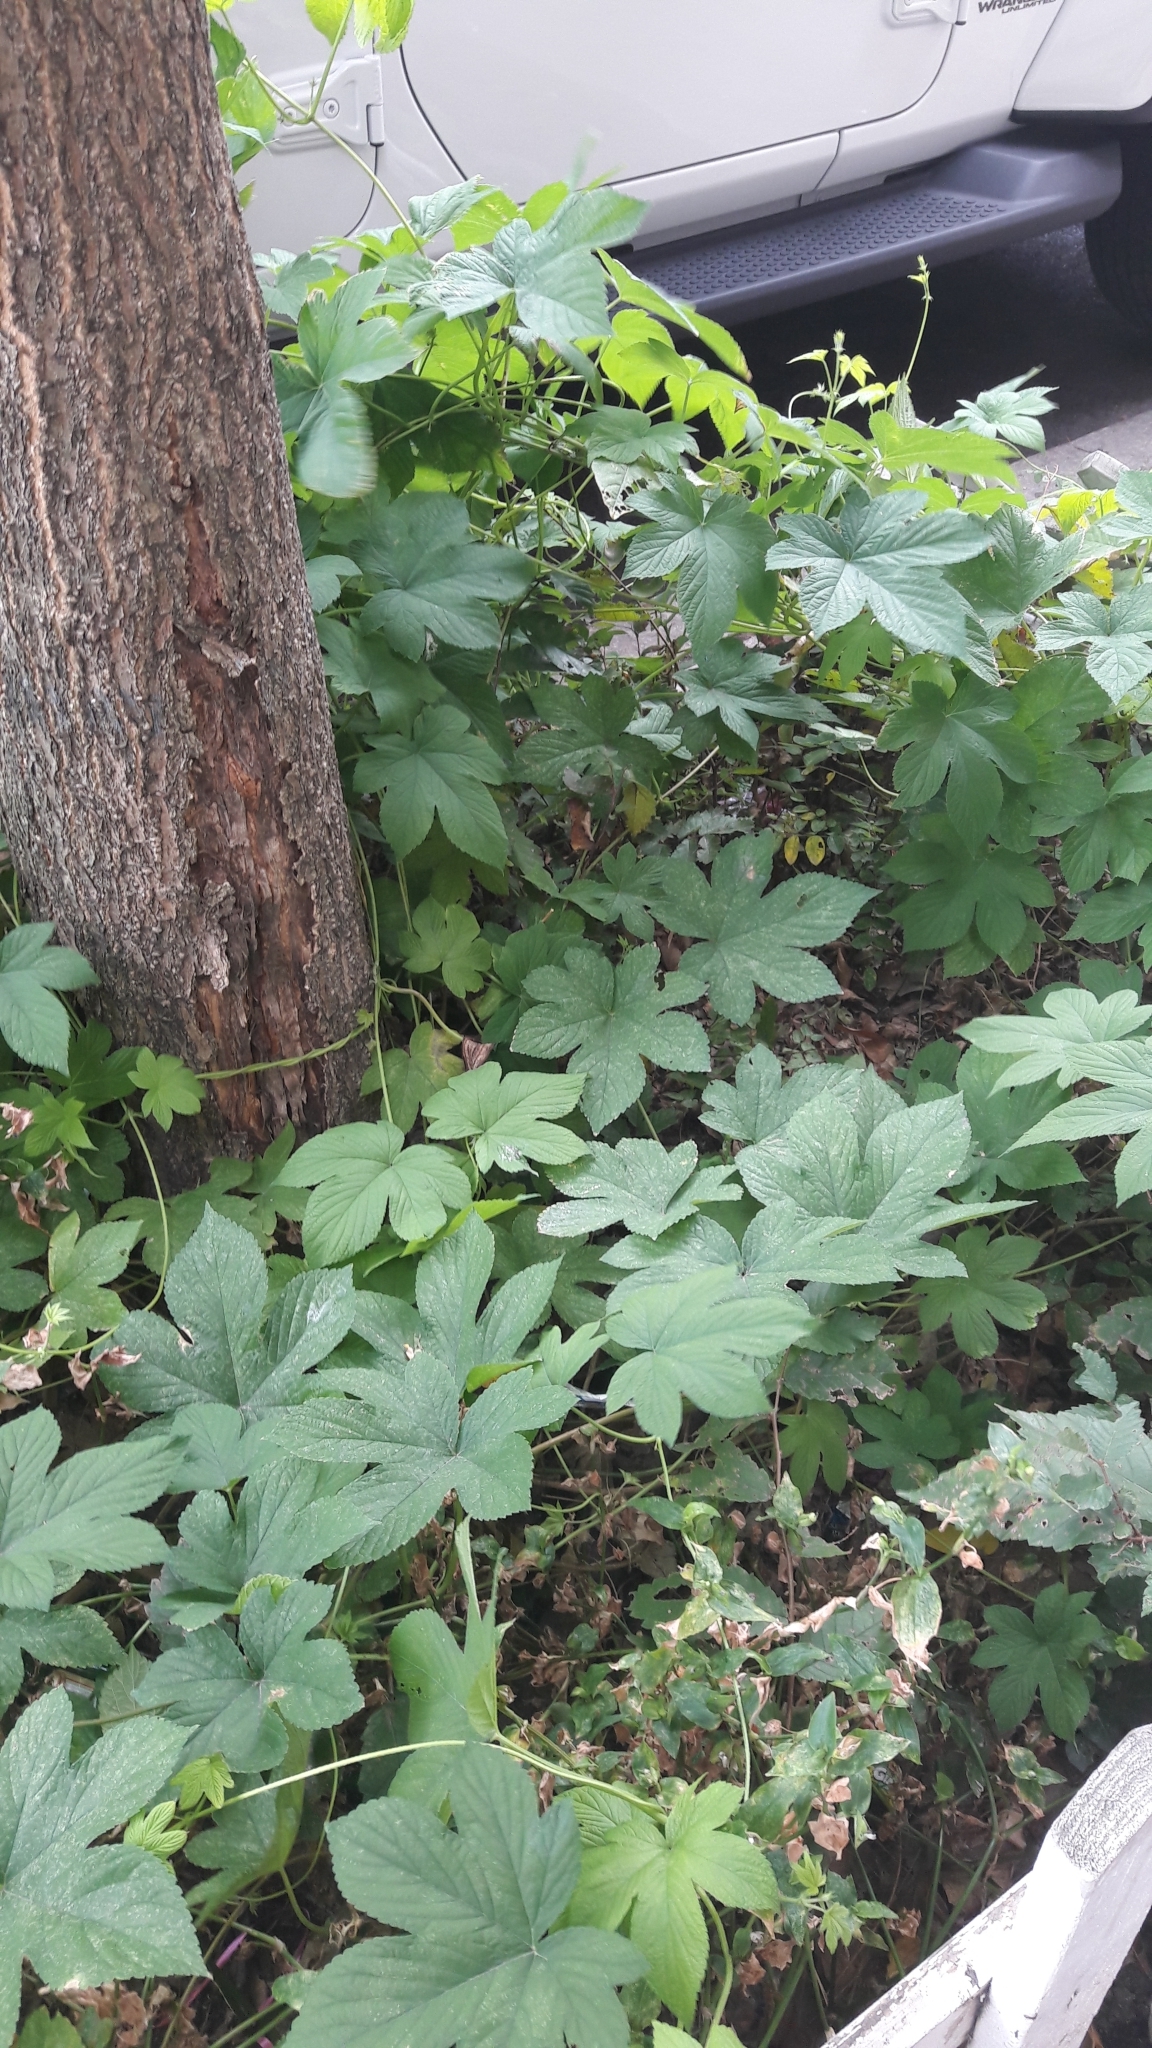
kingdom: Plantae
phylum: Tracheophyta
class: Magnoliopsida
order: Rosales
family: Cannabaceae
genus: Humulus
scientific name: Humulus scandens
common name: Japanese hop
